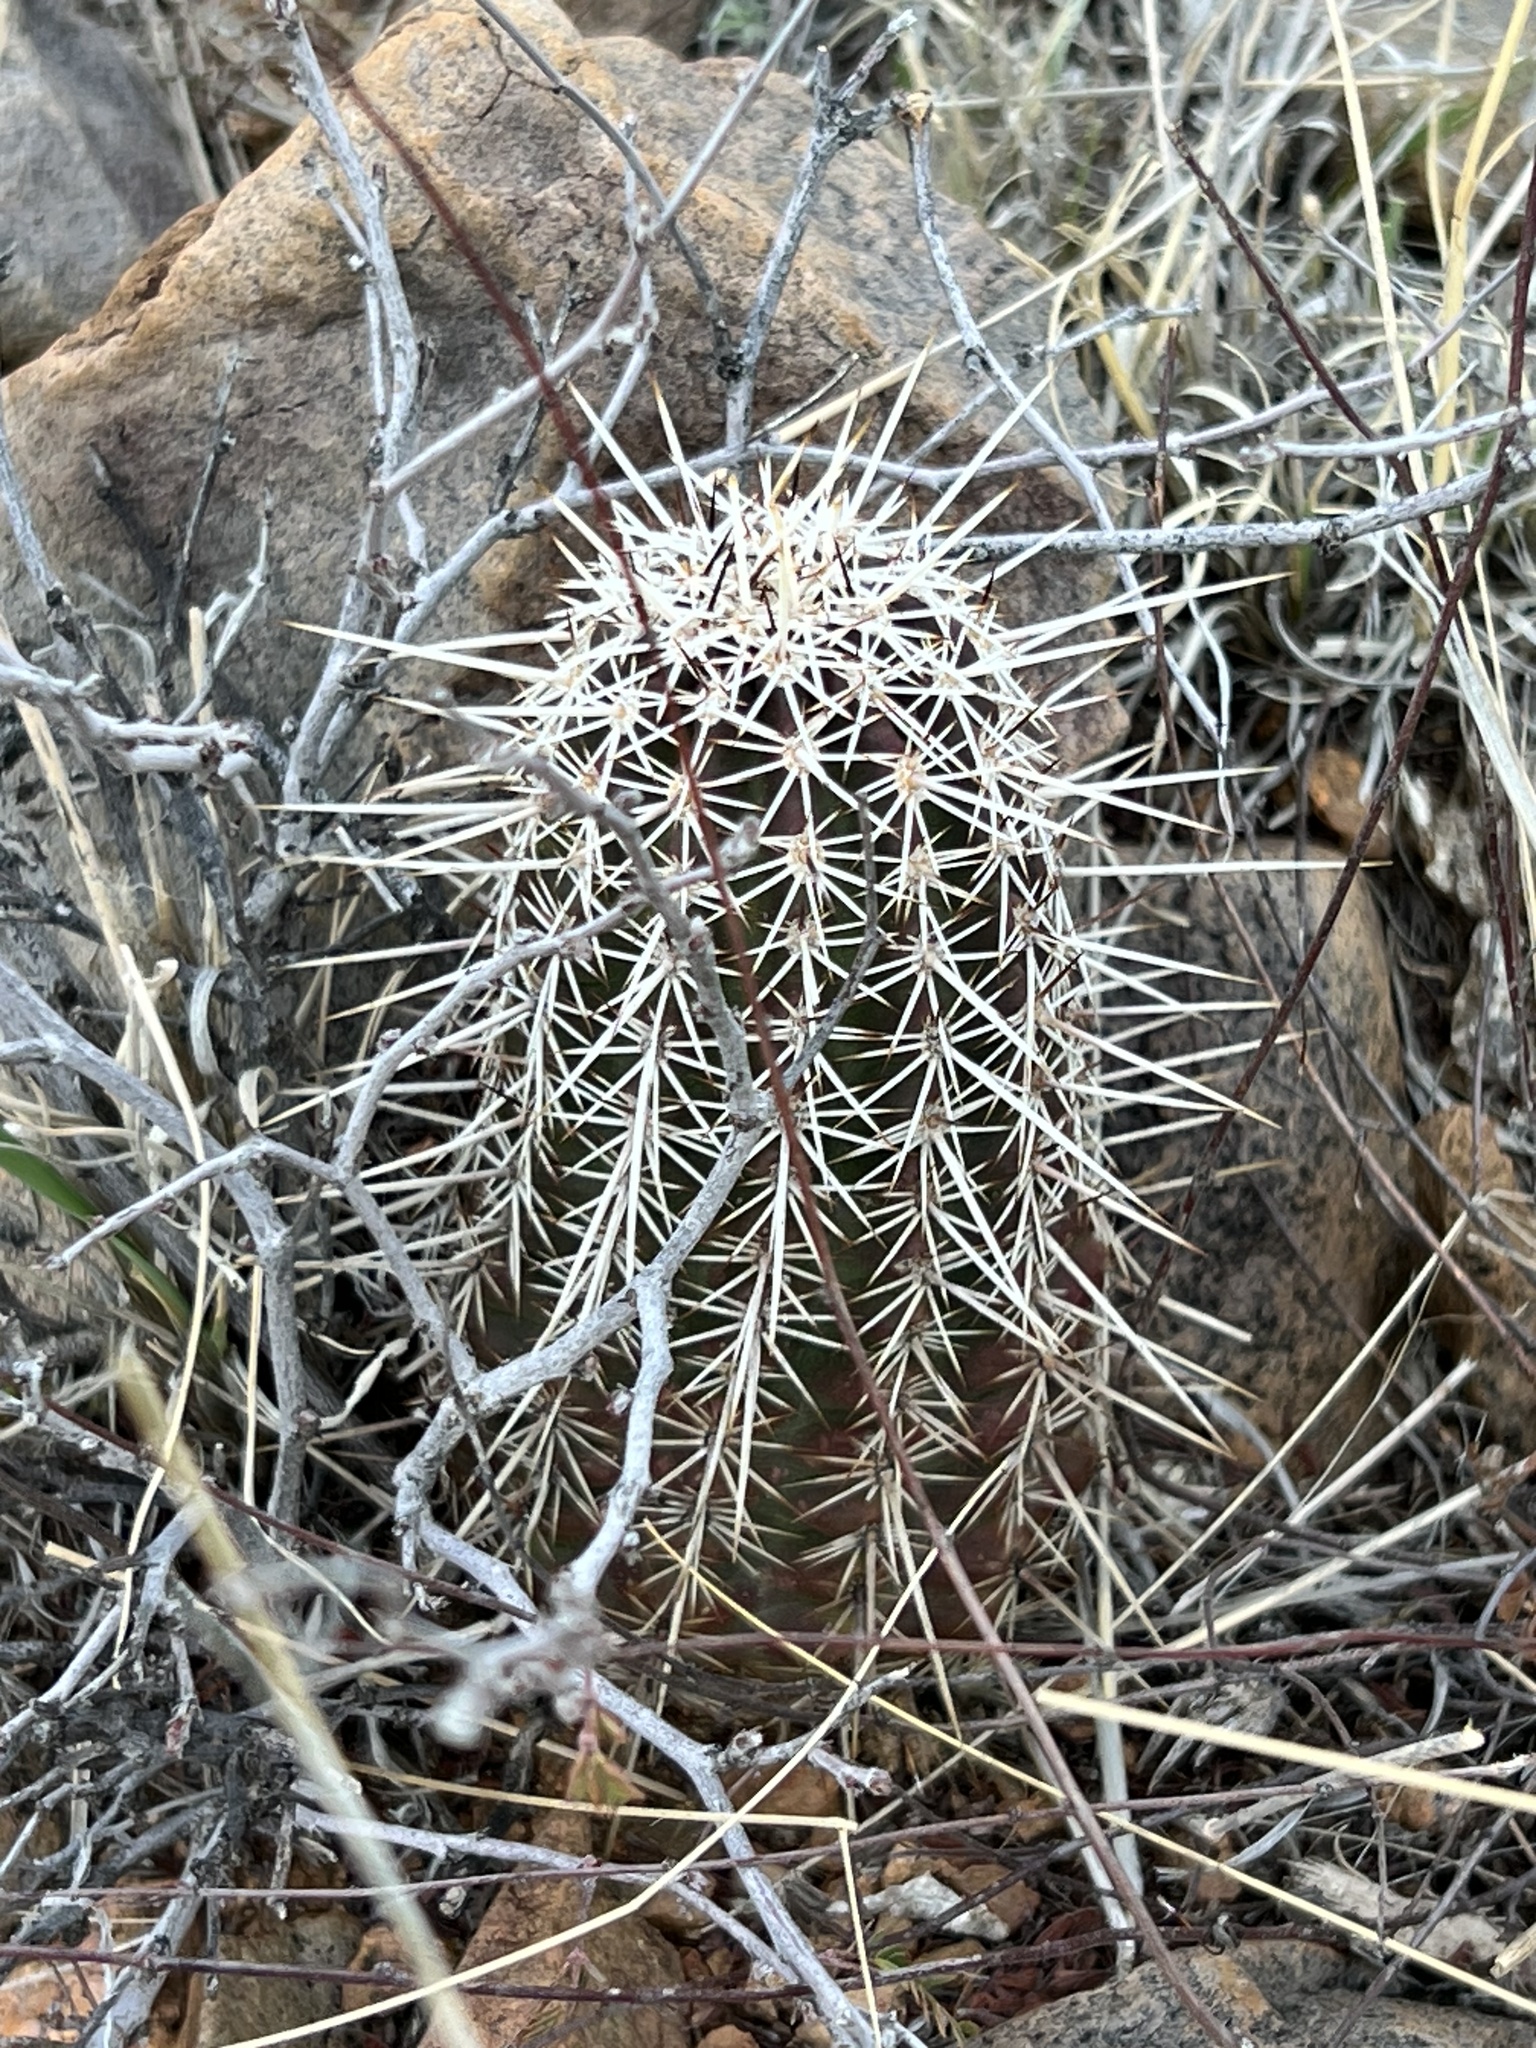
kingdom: Plantae
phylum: Tracheophyta
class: Magnoliopsida
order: Caryophyllales
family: Cactaceae
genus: Echinocereus
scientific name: Echinocereus fendleri
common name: Fendler's hedgehog cactus
